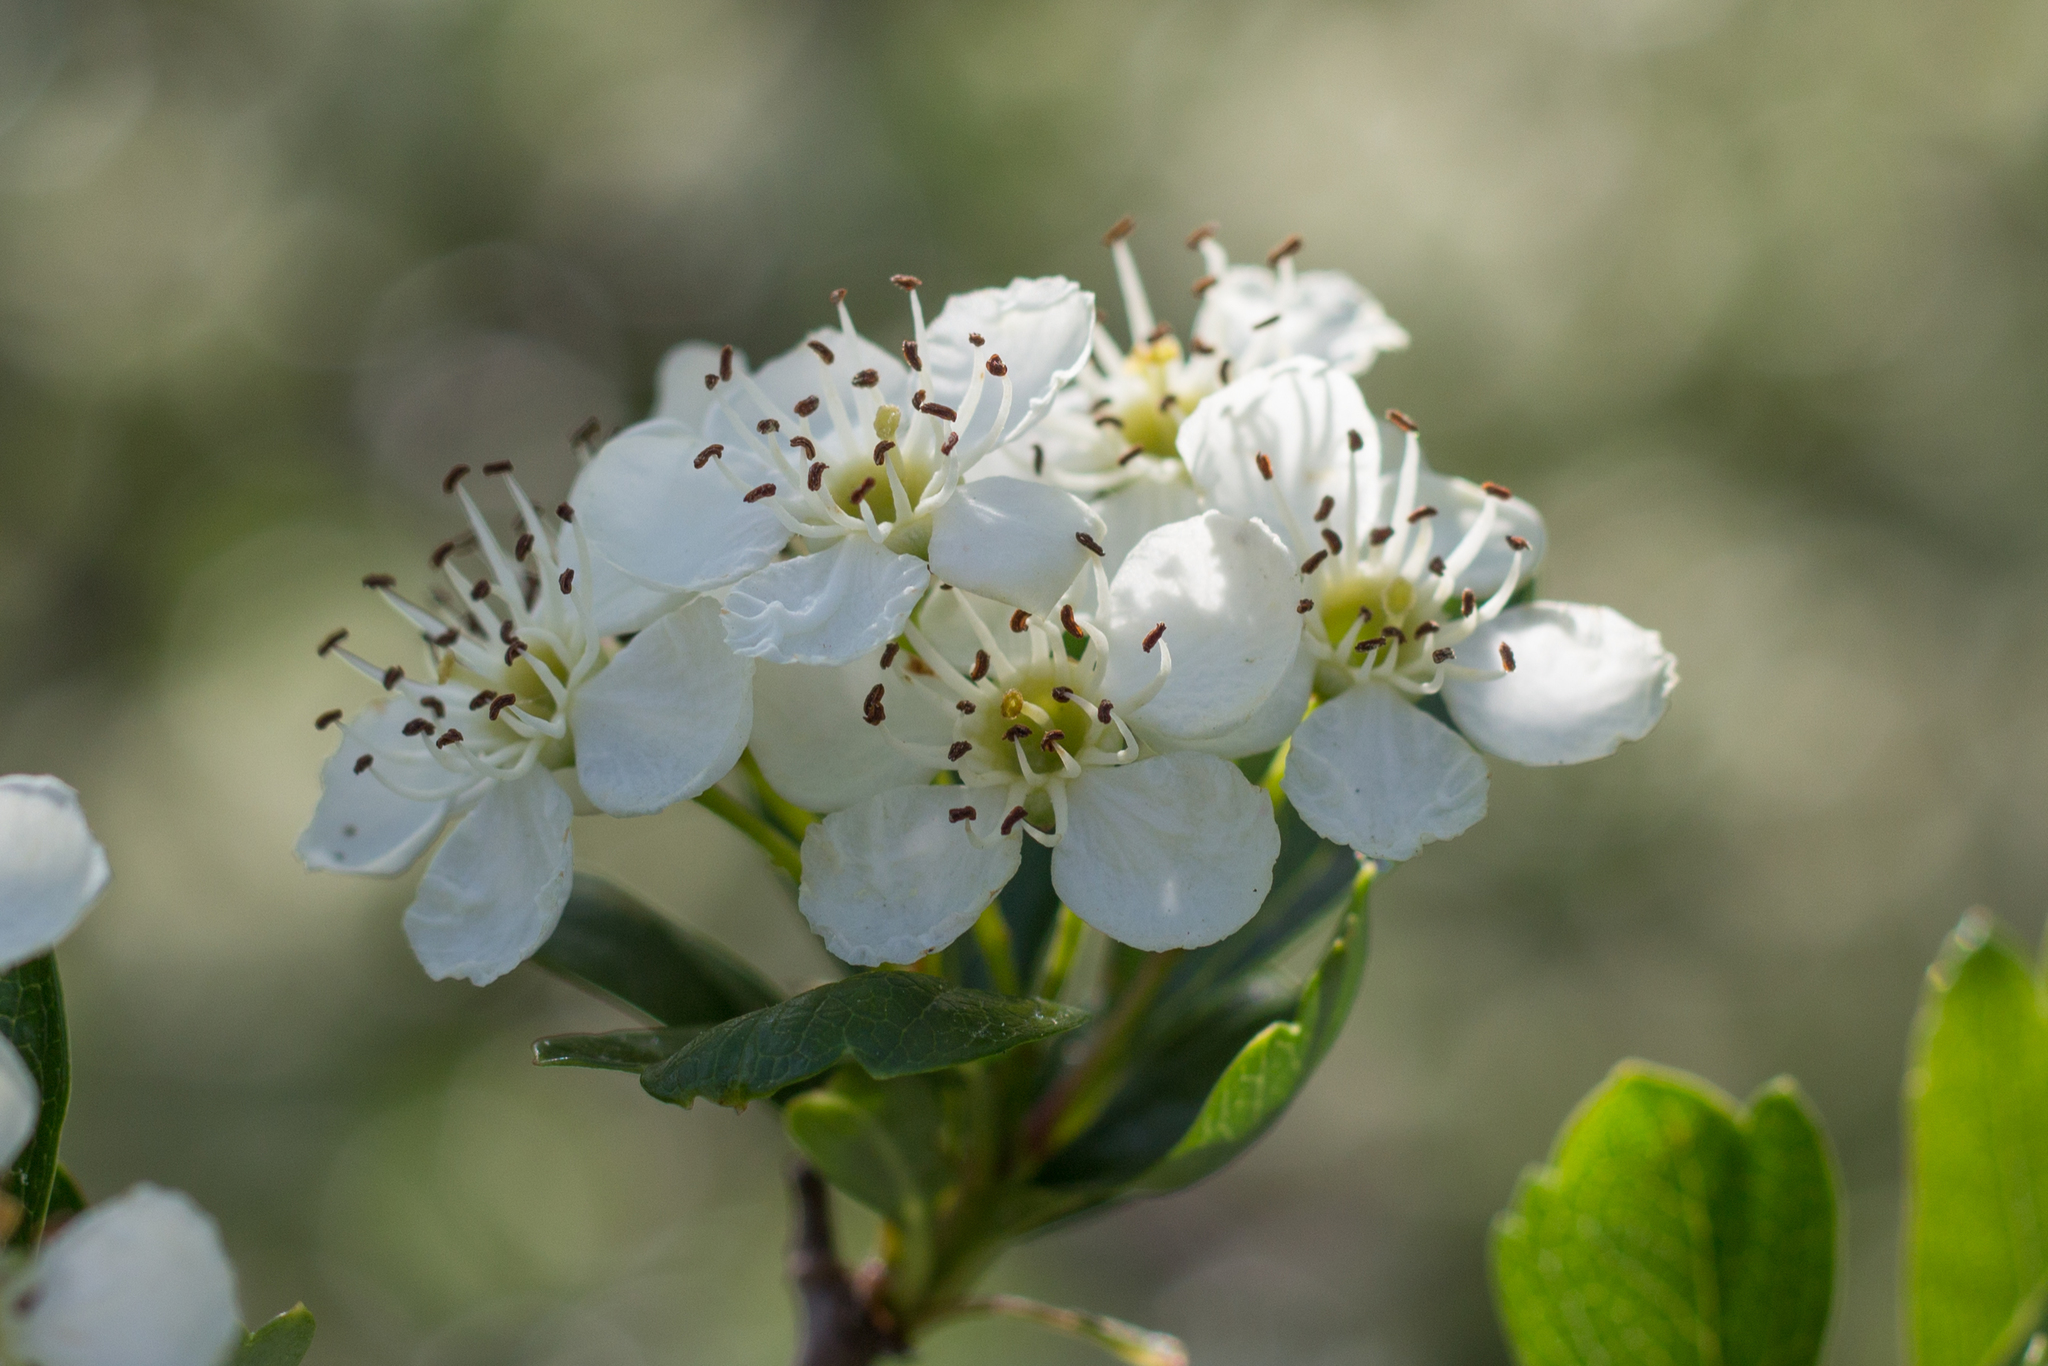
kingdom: Plantae
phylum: Tracheophyta
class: Magnoliopsida
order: Rosales
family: Rosaceae
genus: Crataegus
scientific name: Crataegus monogyna
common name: Hawthorn
